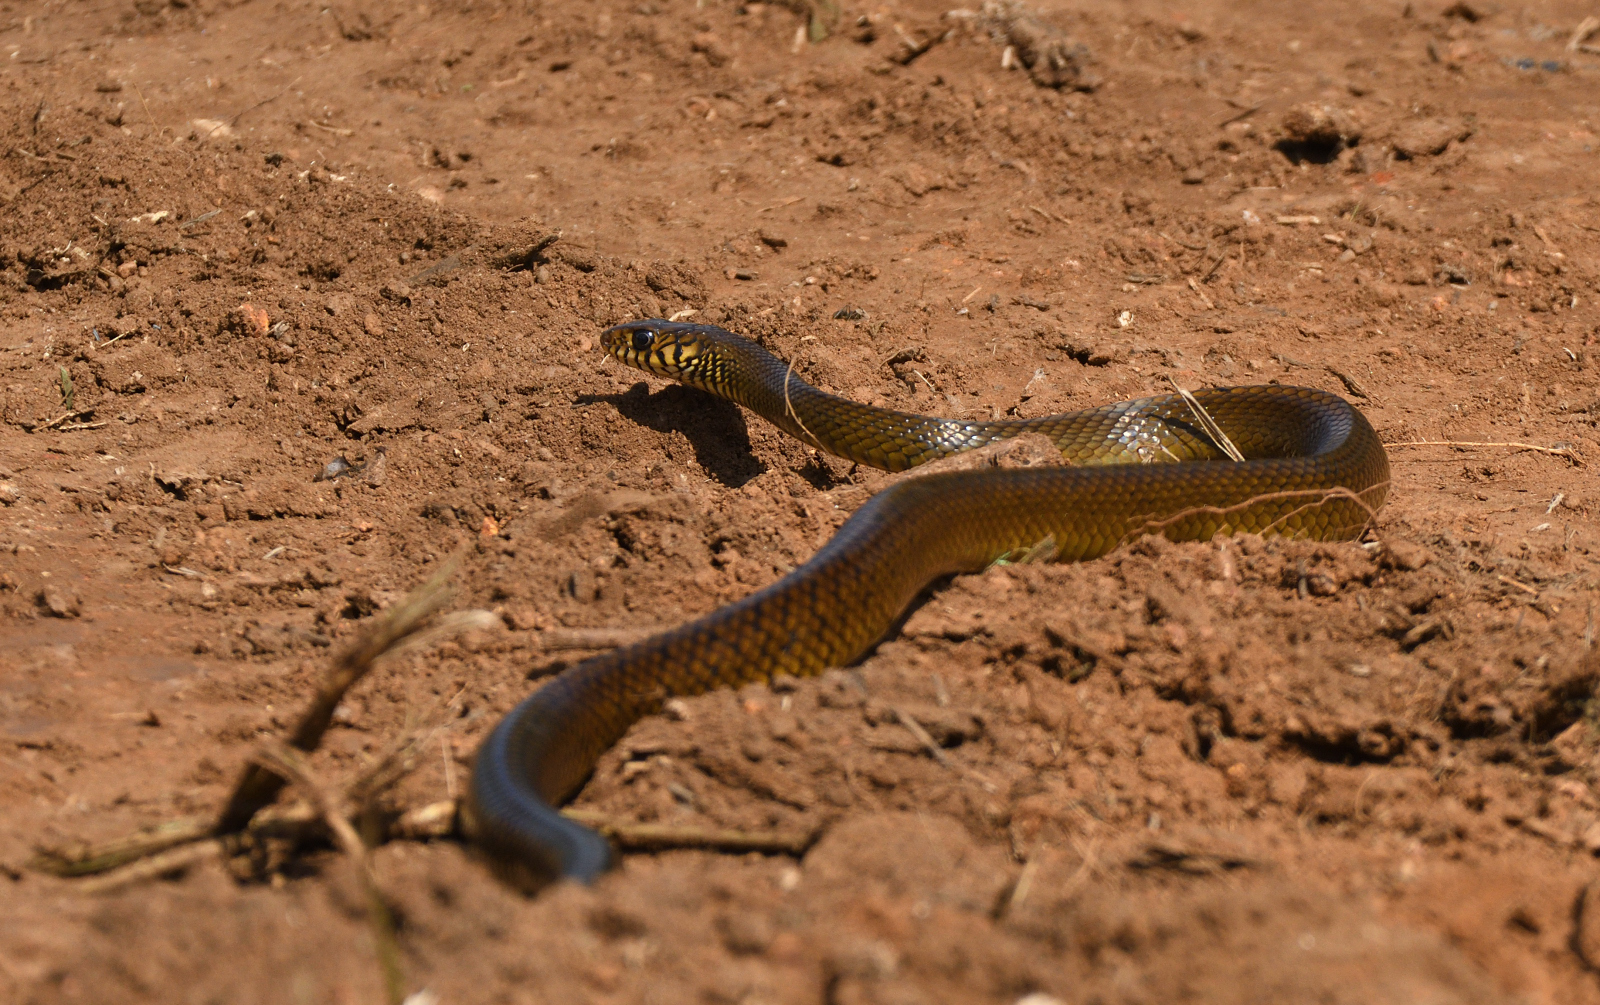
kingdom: Animalia
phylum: Chordata
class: Squamata
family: Colubridae
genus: Ptyas
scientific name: Ptyas mucosa
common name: Oriental ratsnake
